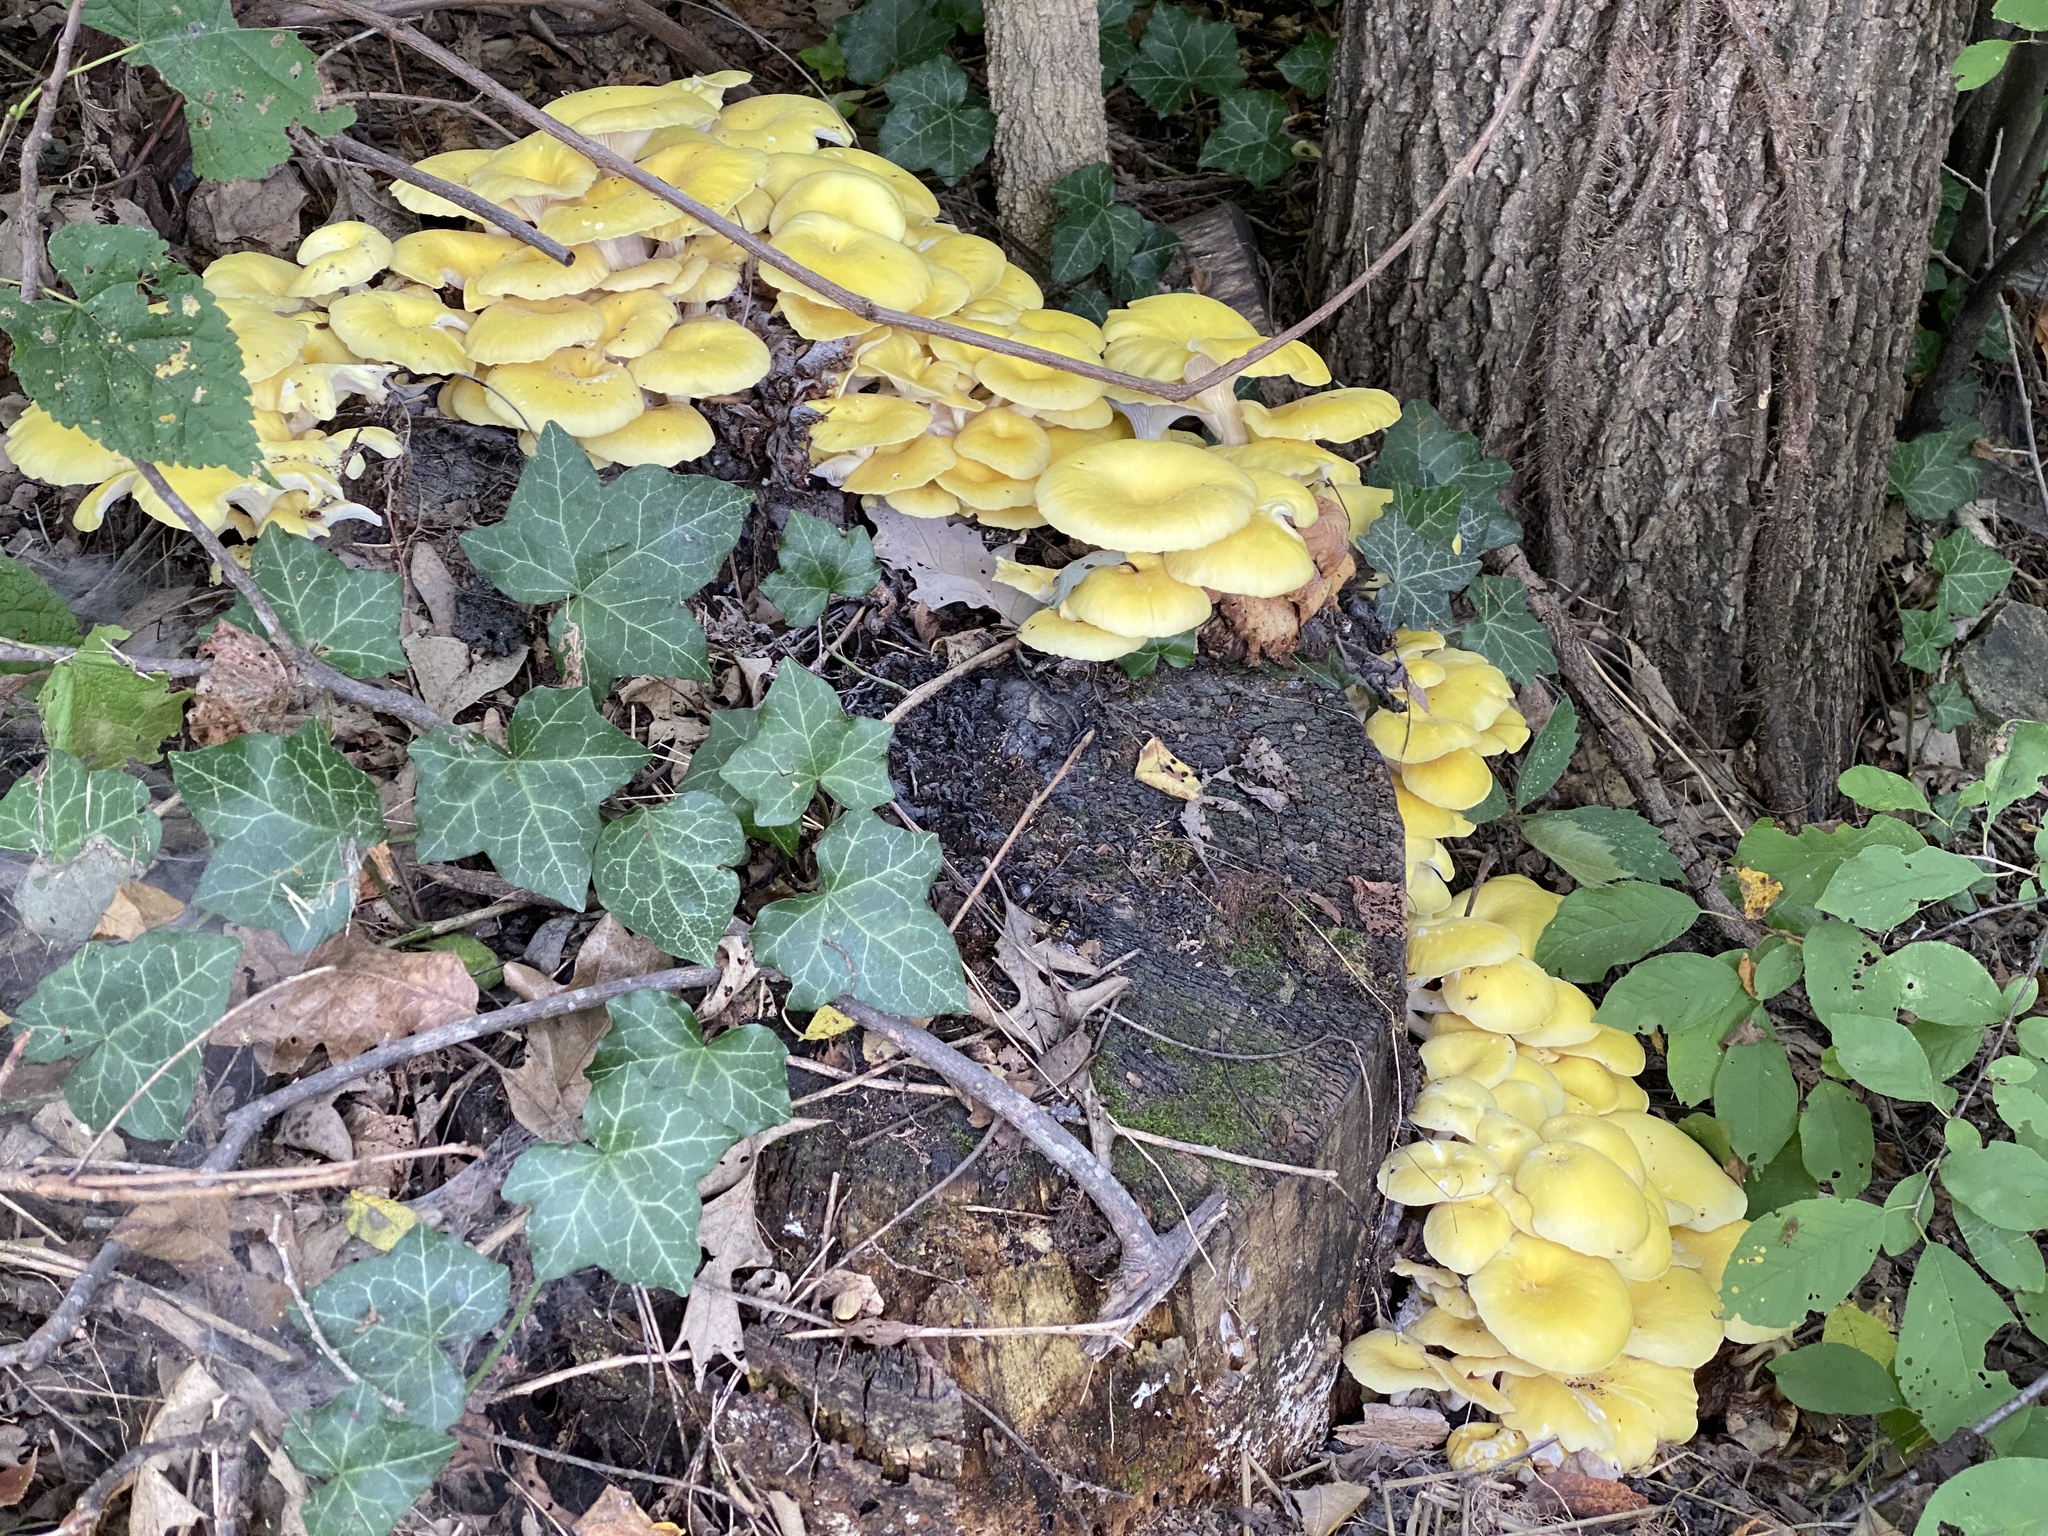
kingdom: Fungi
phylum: Basidiomycota
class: Agaricomycetes
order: Agaricales
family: Pleurotaceae
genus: Pleurotus
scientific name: Pleurotus citrinopileatus
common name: Golden oyster mushroom
